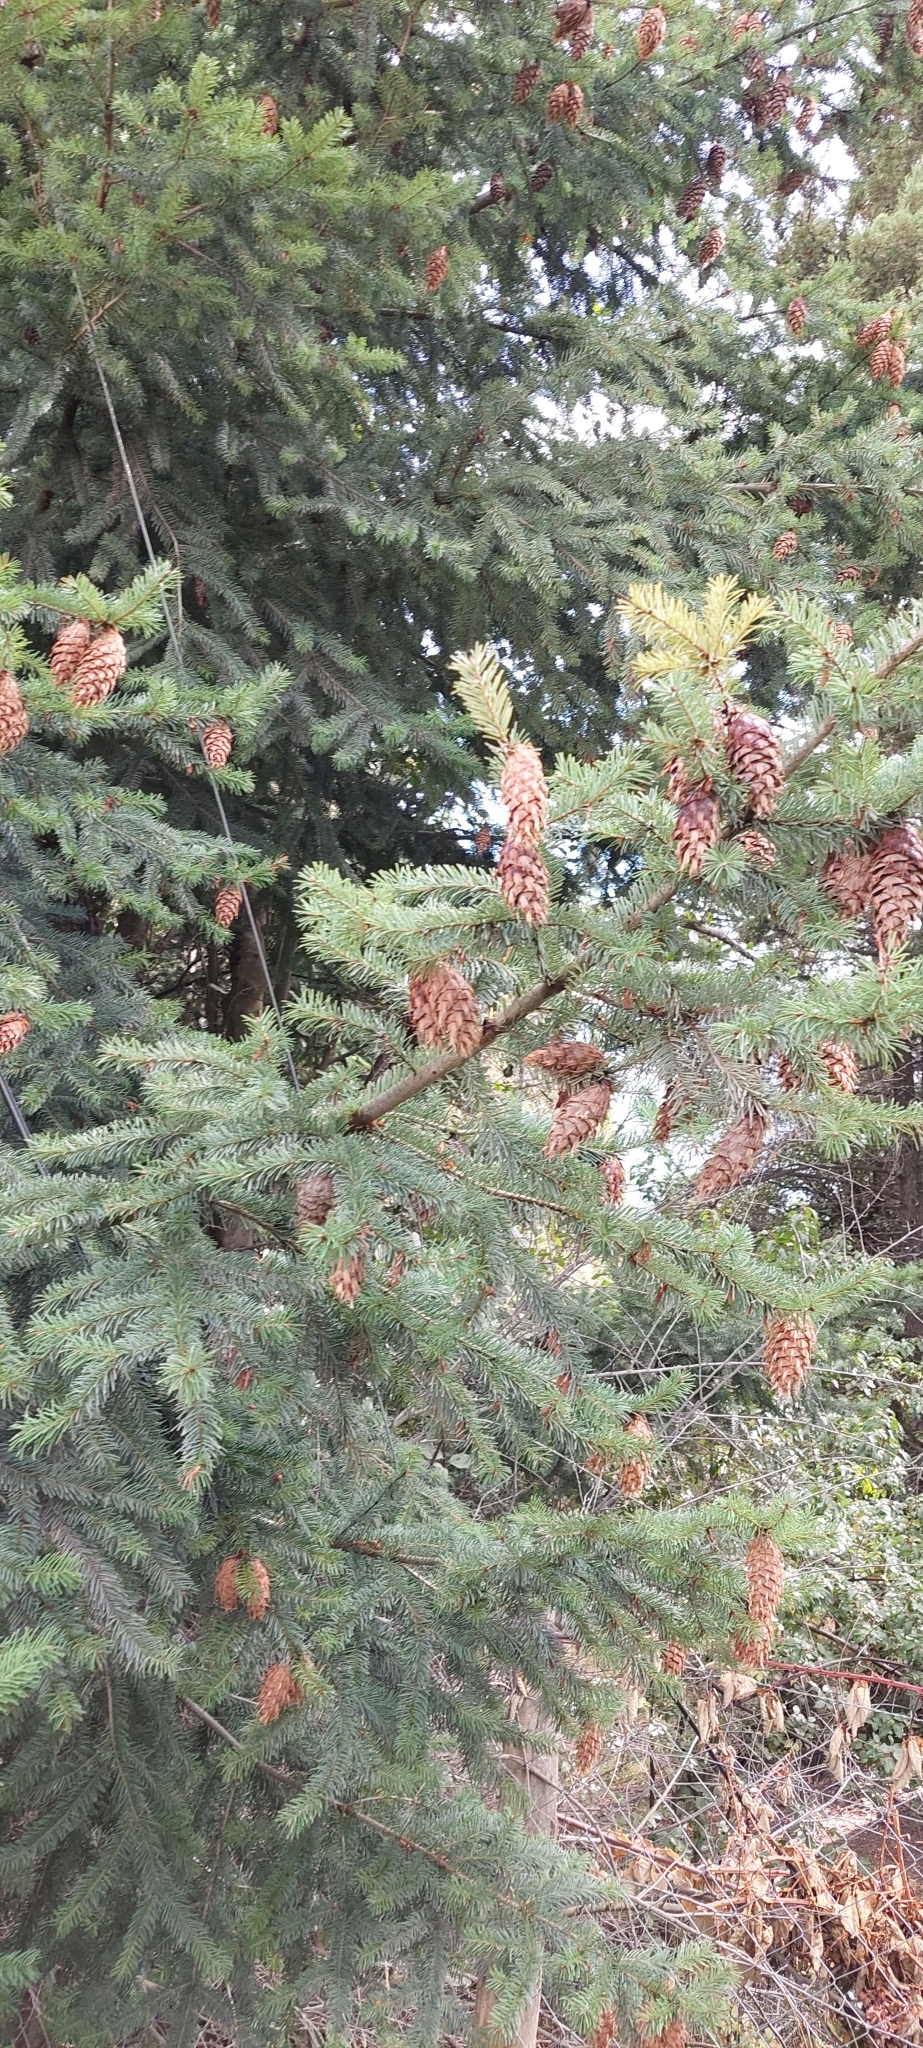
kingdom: Plantae
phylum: Tracheophyta
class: Pinopsida
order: Pinales
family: Pinaceae
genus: Pseudotsuga
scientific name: Pseudotsuga menziesii
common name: Douglas fir
